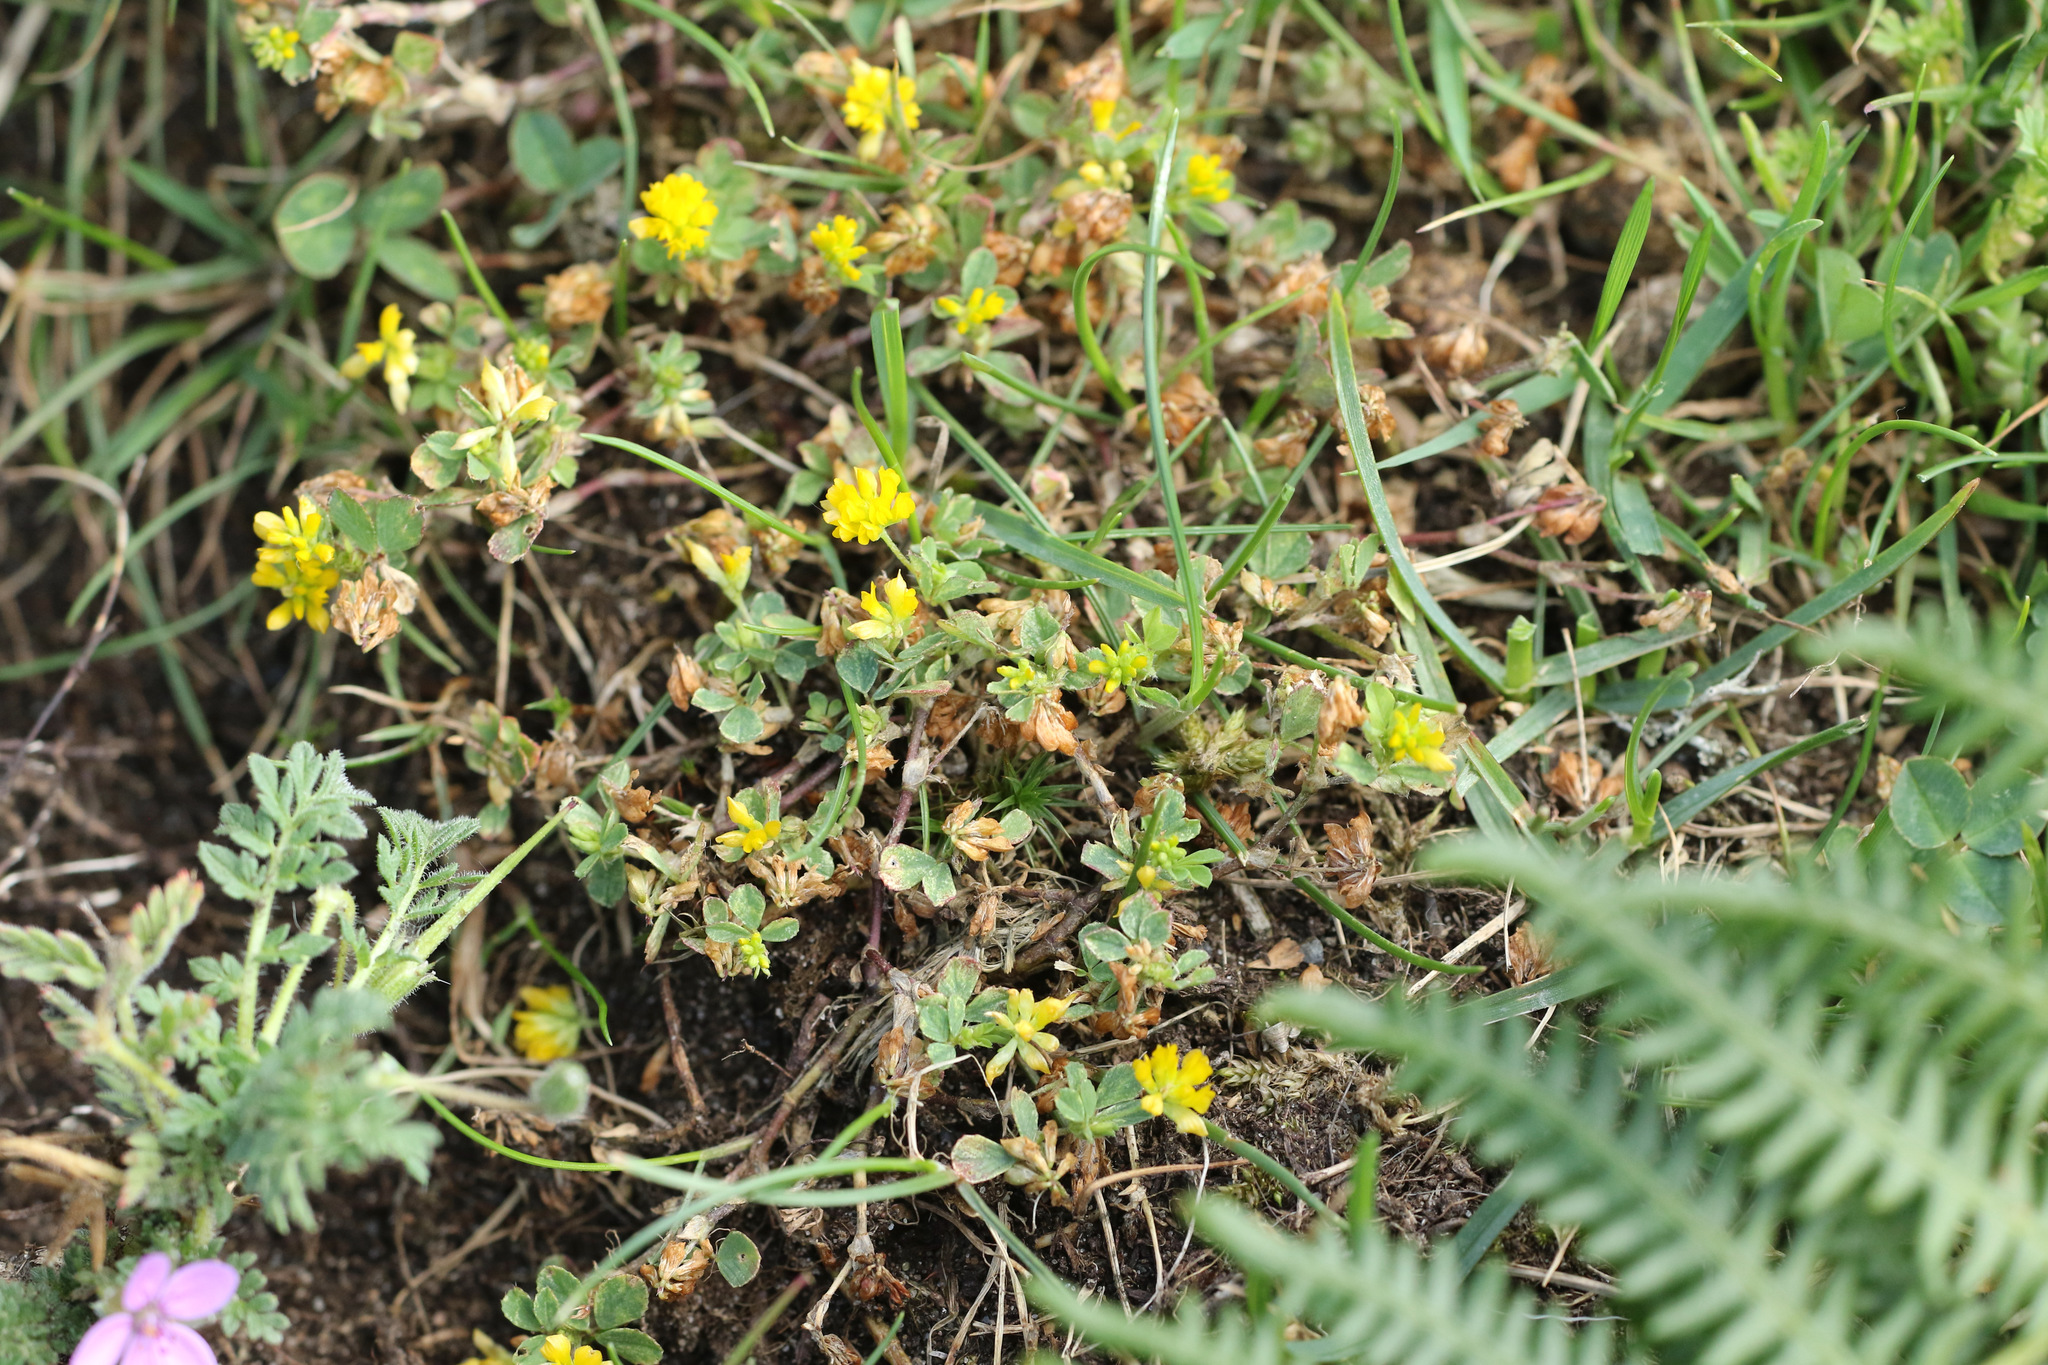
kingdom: Plantae
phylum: Tracheophyta
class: Magnoliopsida
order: Fabales
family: Fabaceae
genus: Trifolium
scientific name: Trifolium dubium
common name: Suckling clover
